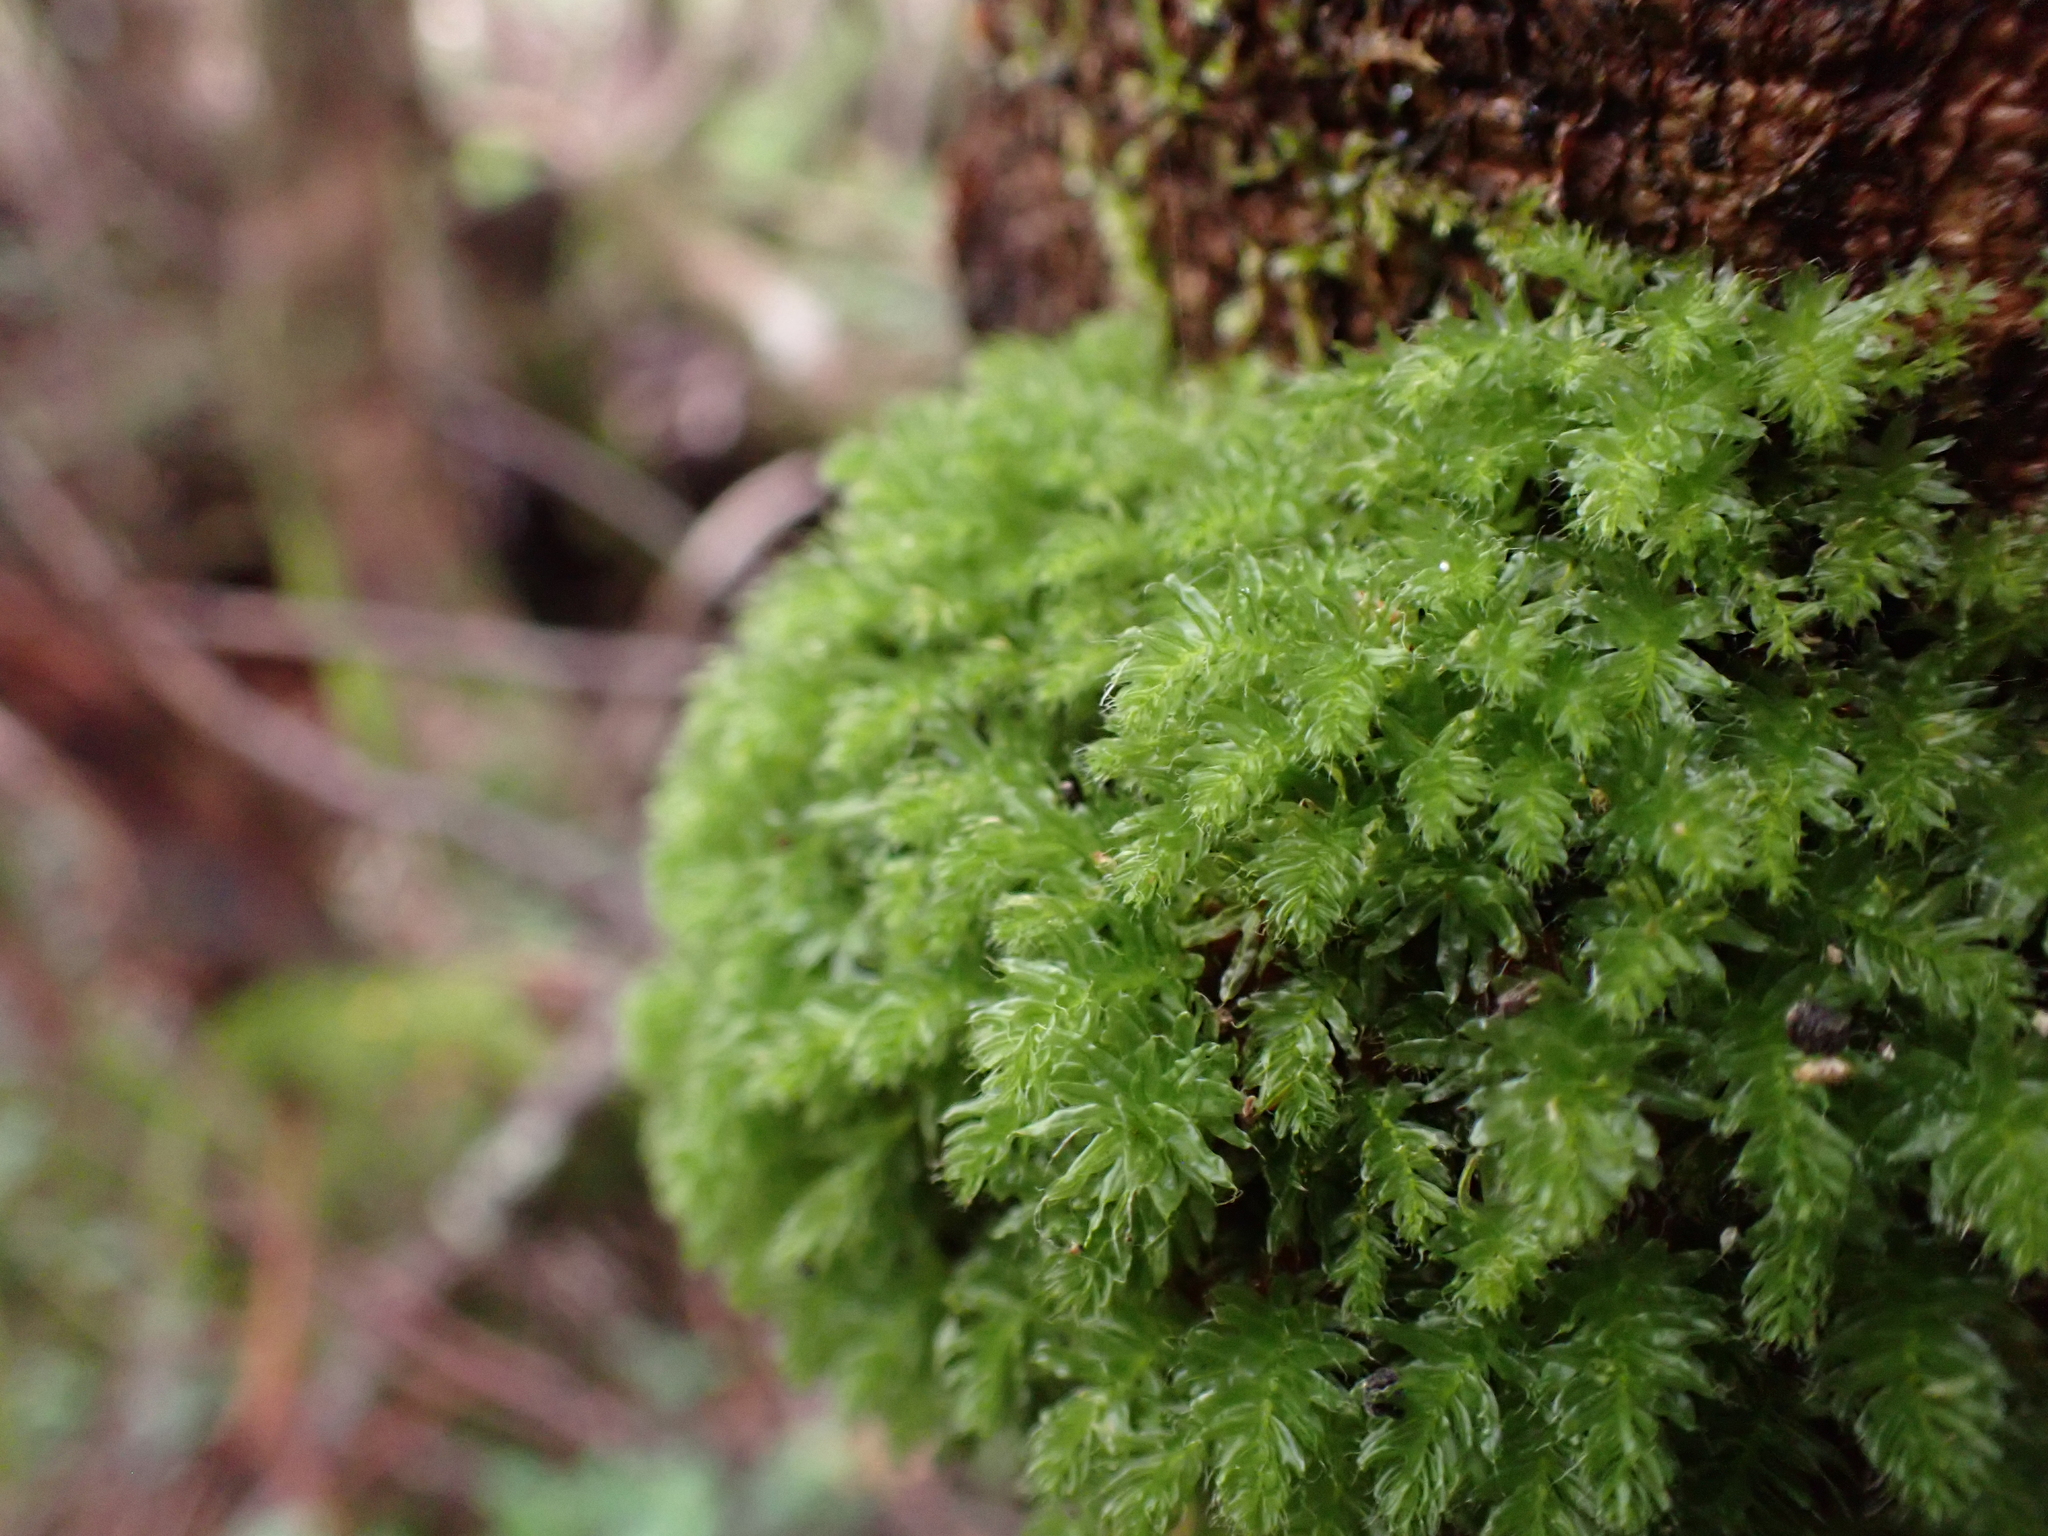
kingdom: Plantae
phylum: Bryophyta
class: Bryopsida
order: Bryales
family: Leptostomataceae
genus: Leptostomum
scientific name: Leptostomum inclinans
